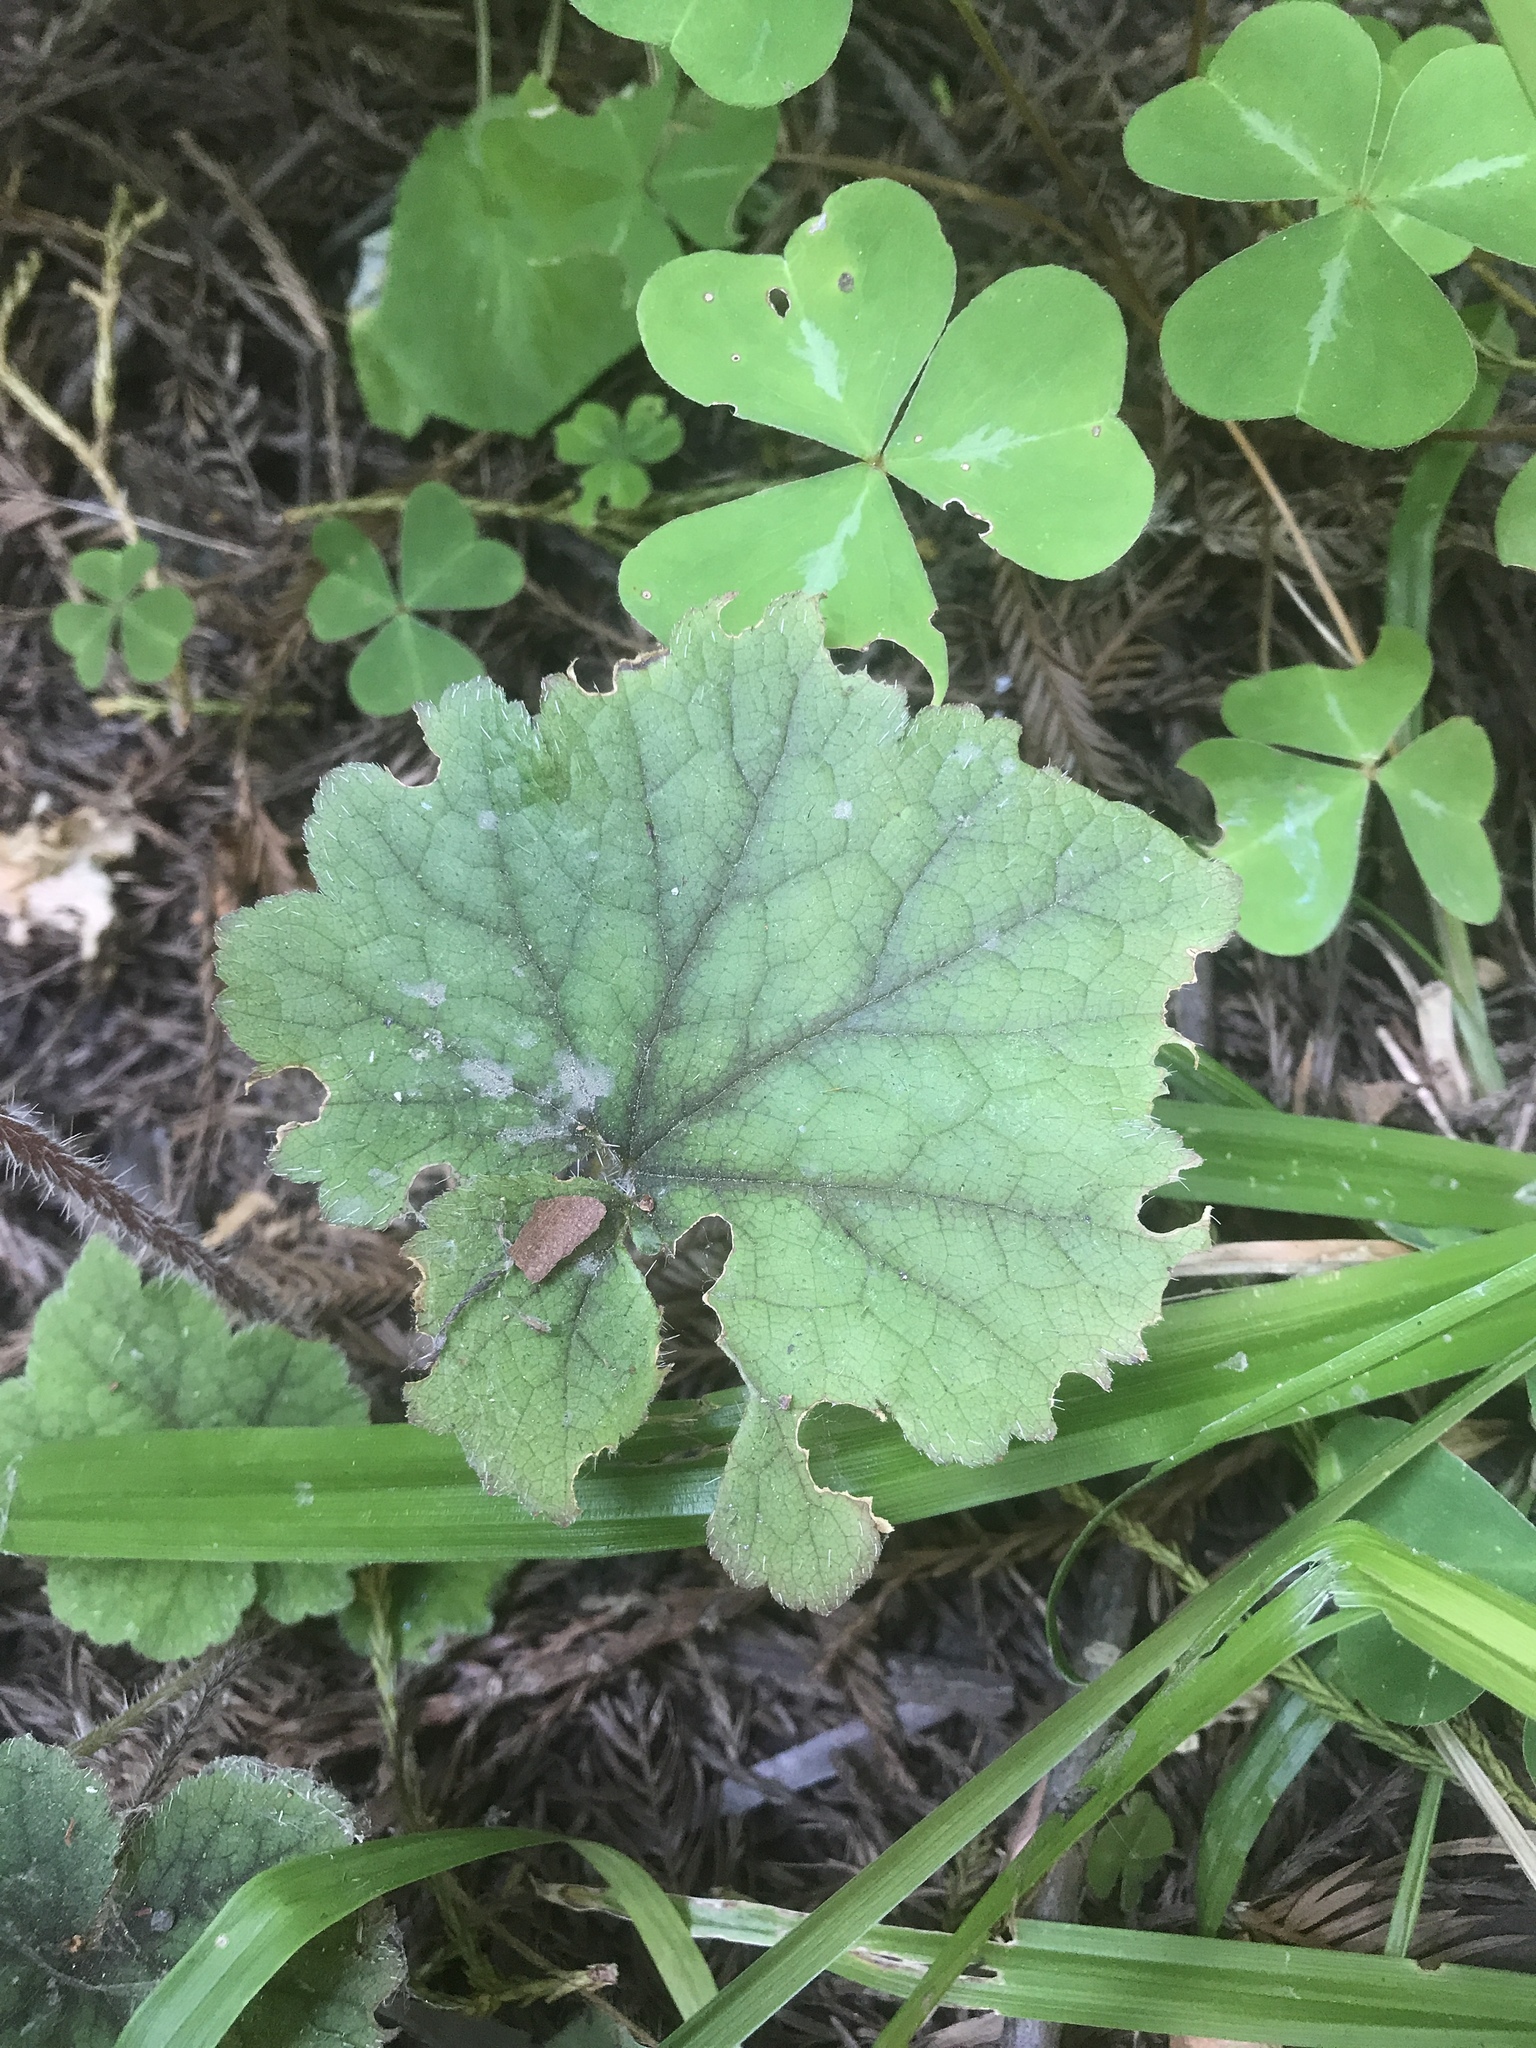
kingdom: Plantae
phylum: Tracheophyta
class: Magnoliopsida
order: Saxifragales
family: Saxifragaceae
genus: Tellima
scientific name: Tellima grandiflora
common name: Fringecups
